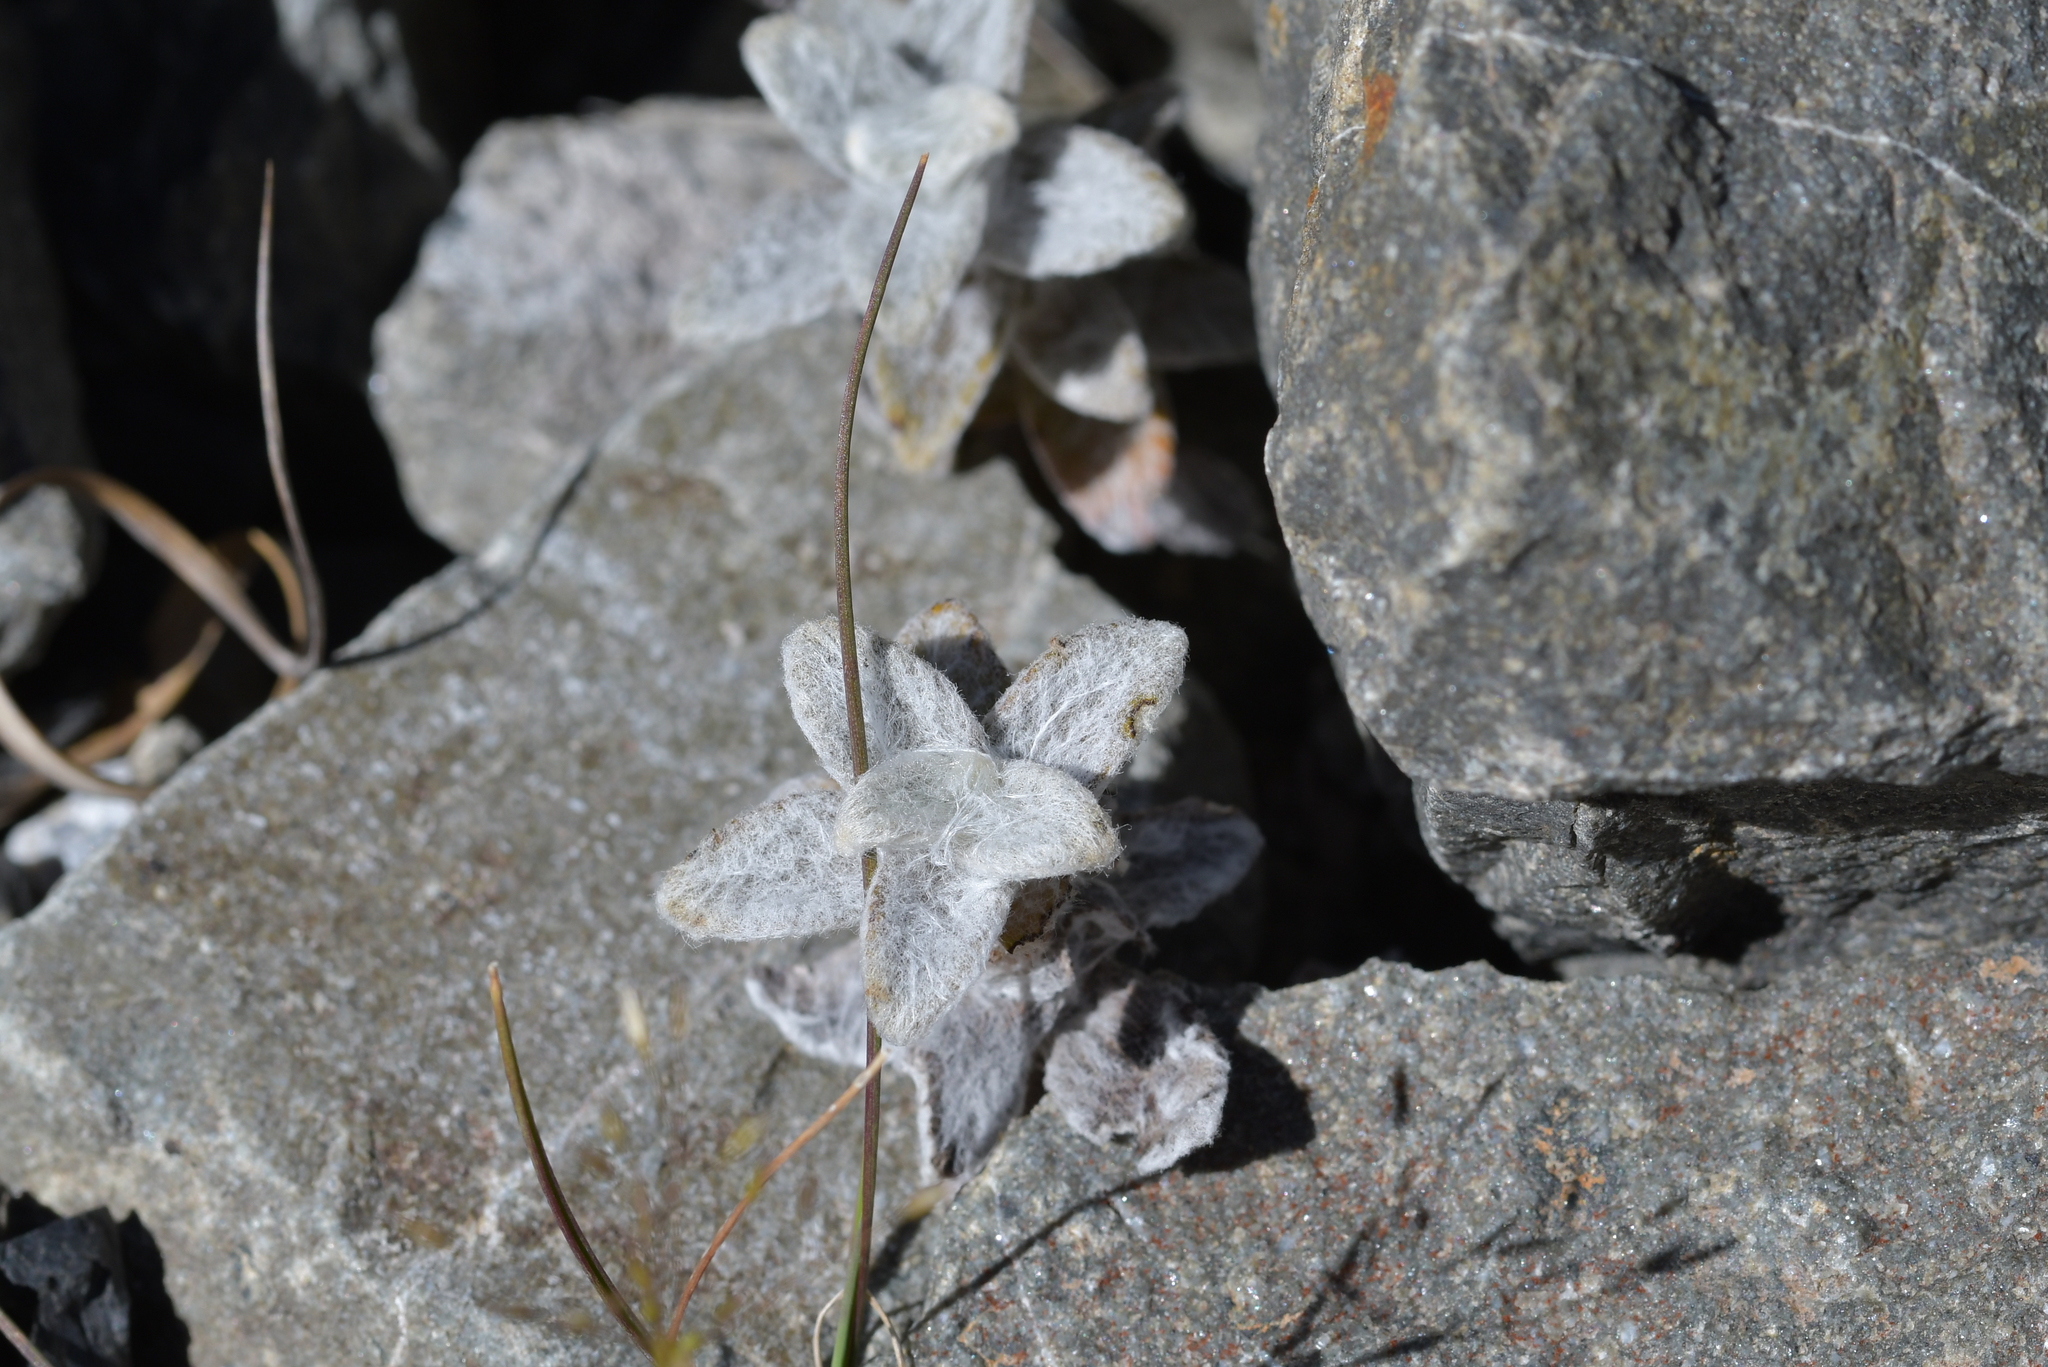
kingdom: Plantae
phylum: Tracheophyta
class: Magnoliopsida
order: Asterales
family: Asteraceae
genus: Haastia
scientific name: Haastia sinclairii
